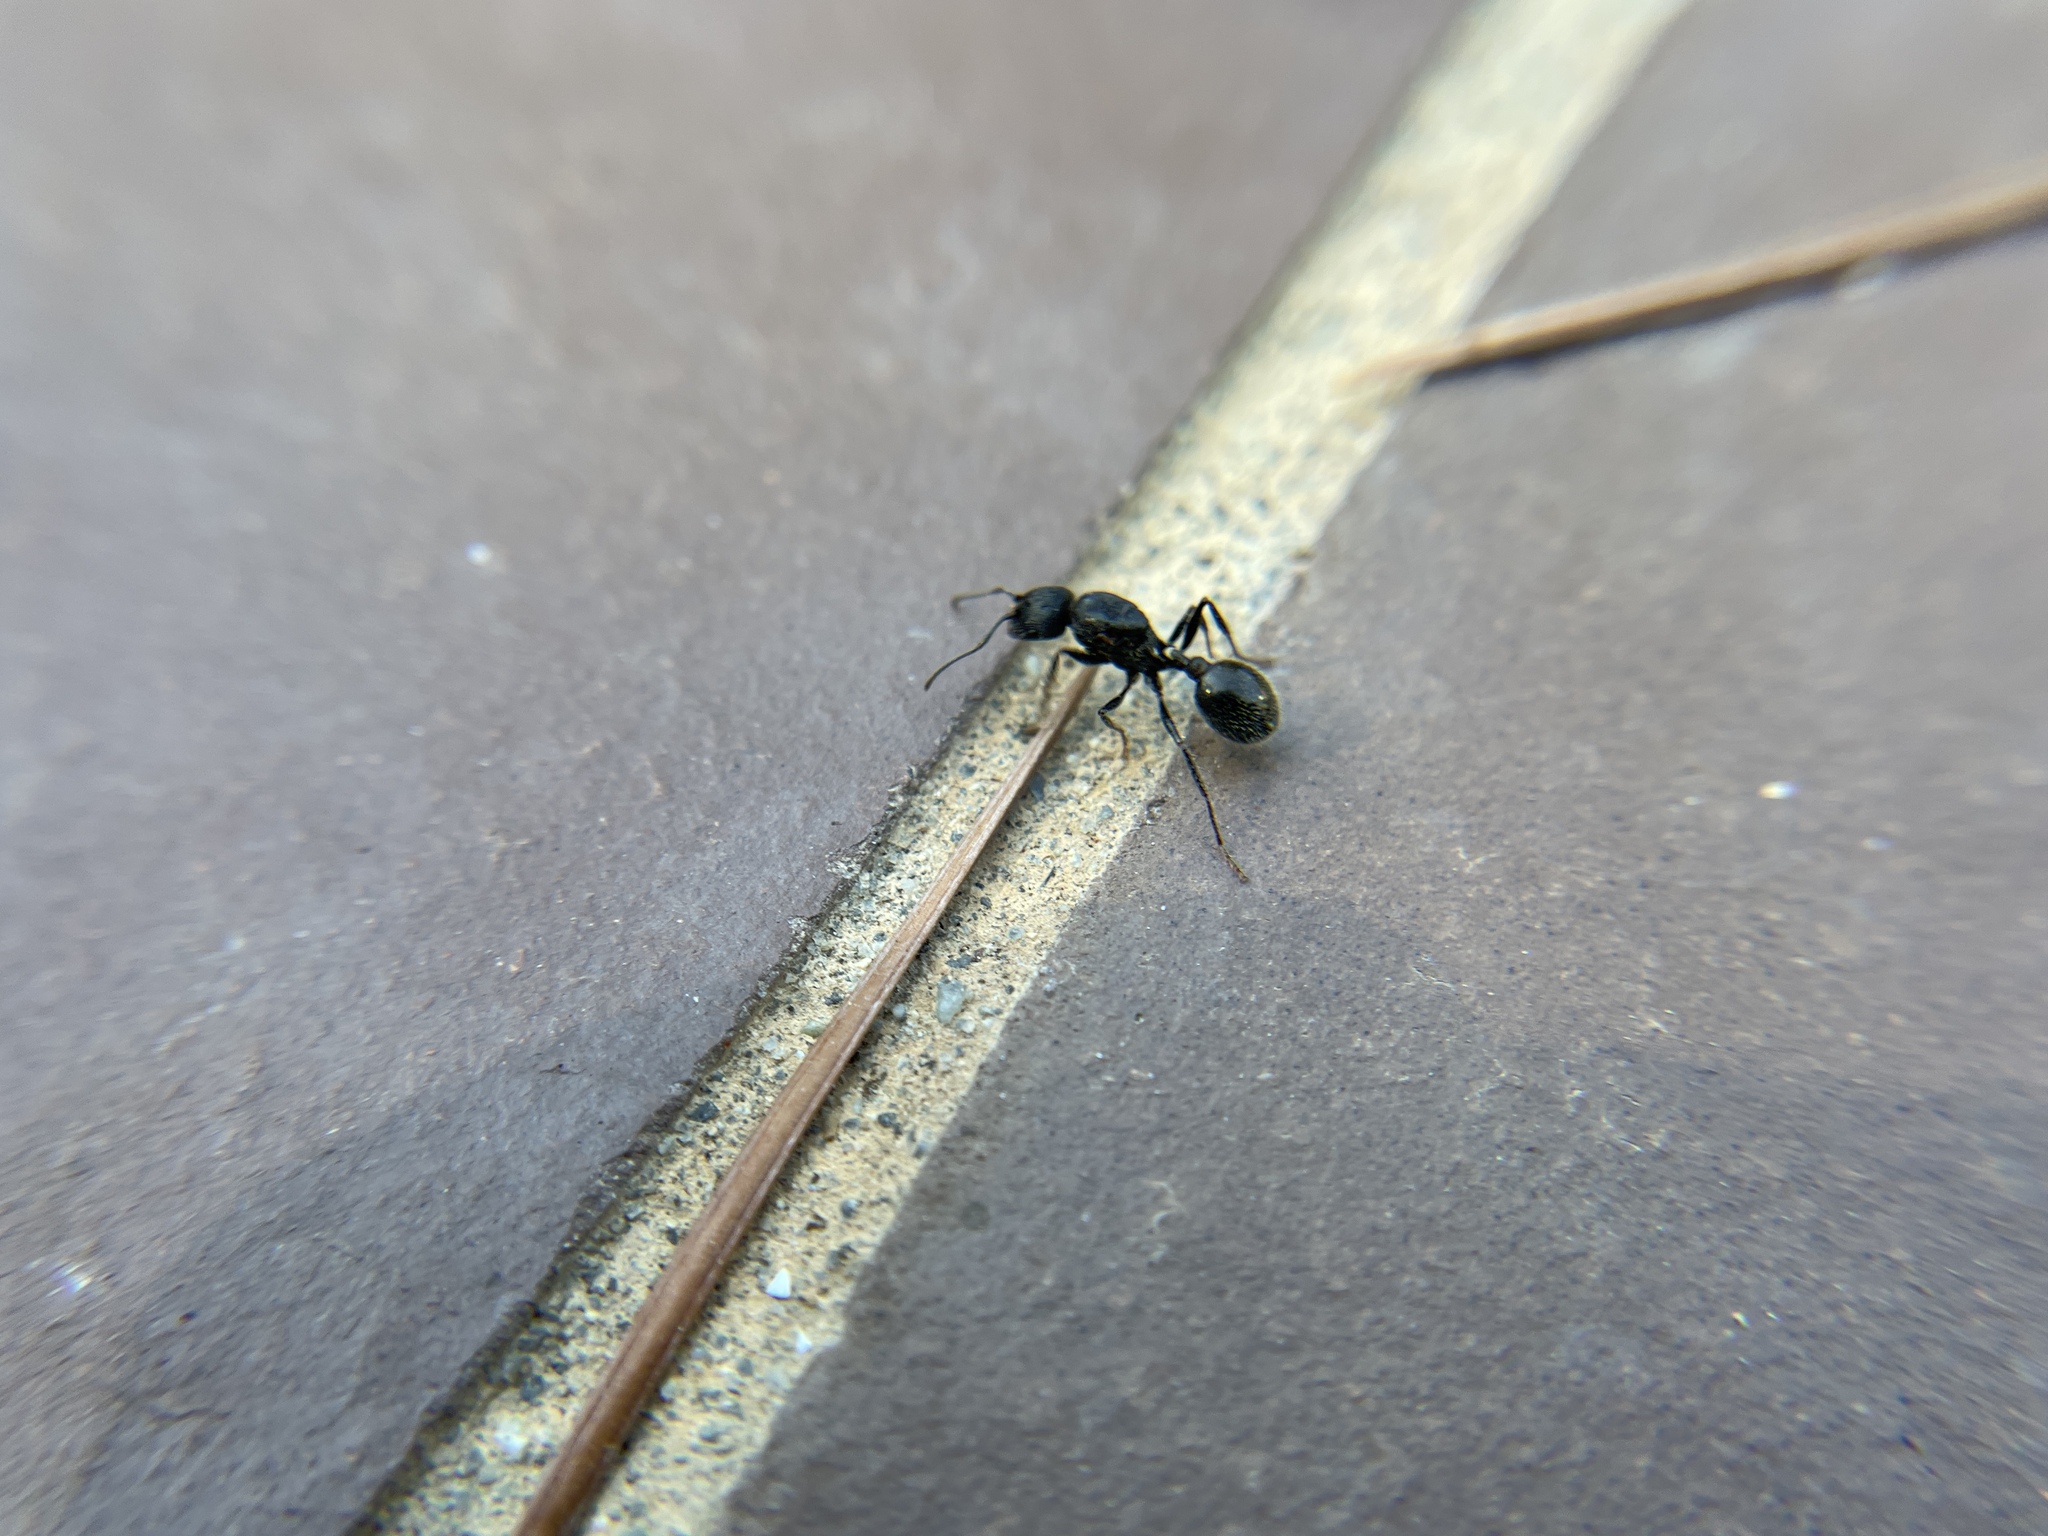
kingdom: Animalia
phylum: Arthropoda
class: Insecta
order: Hymenoptera
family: Formicidae
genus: Veromessor
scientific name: Veromessor andrei
